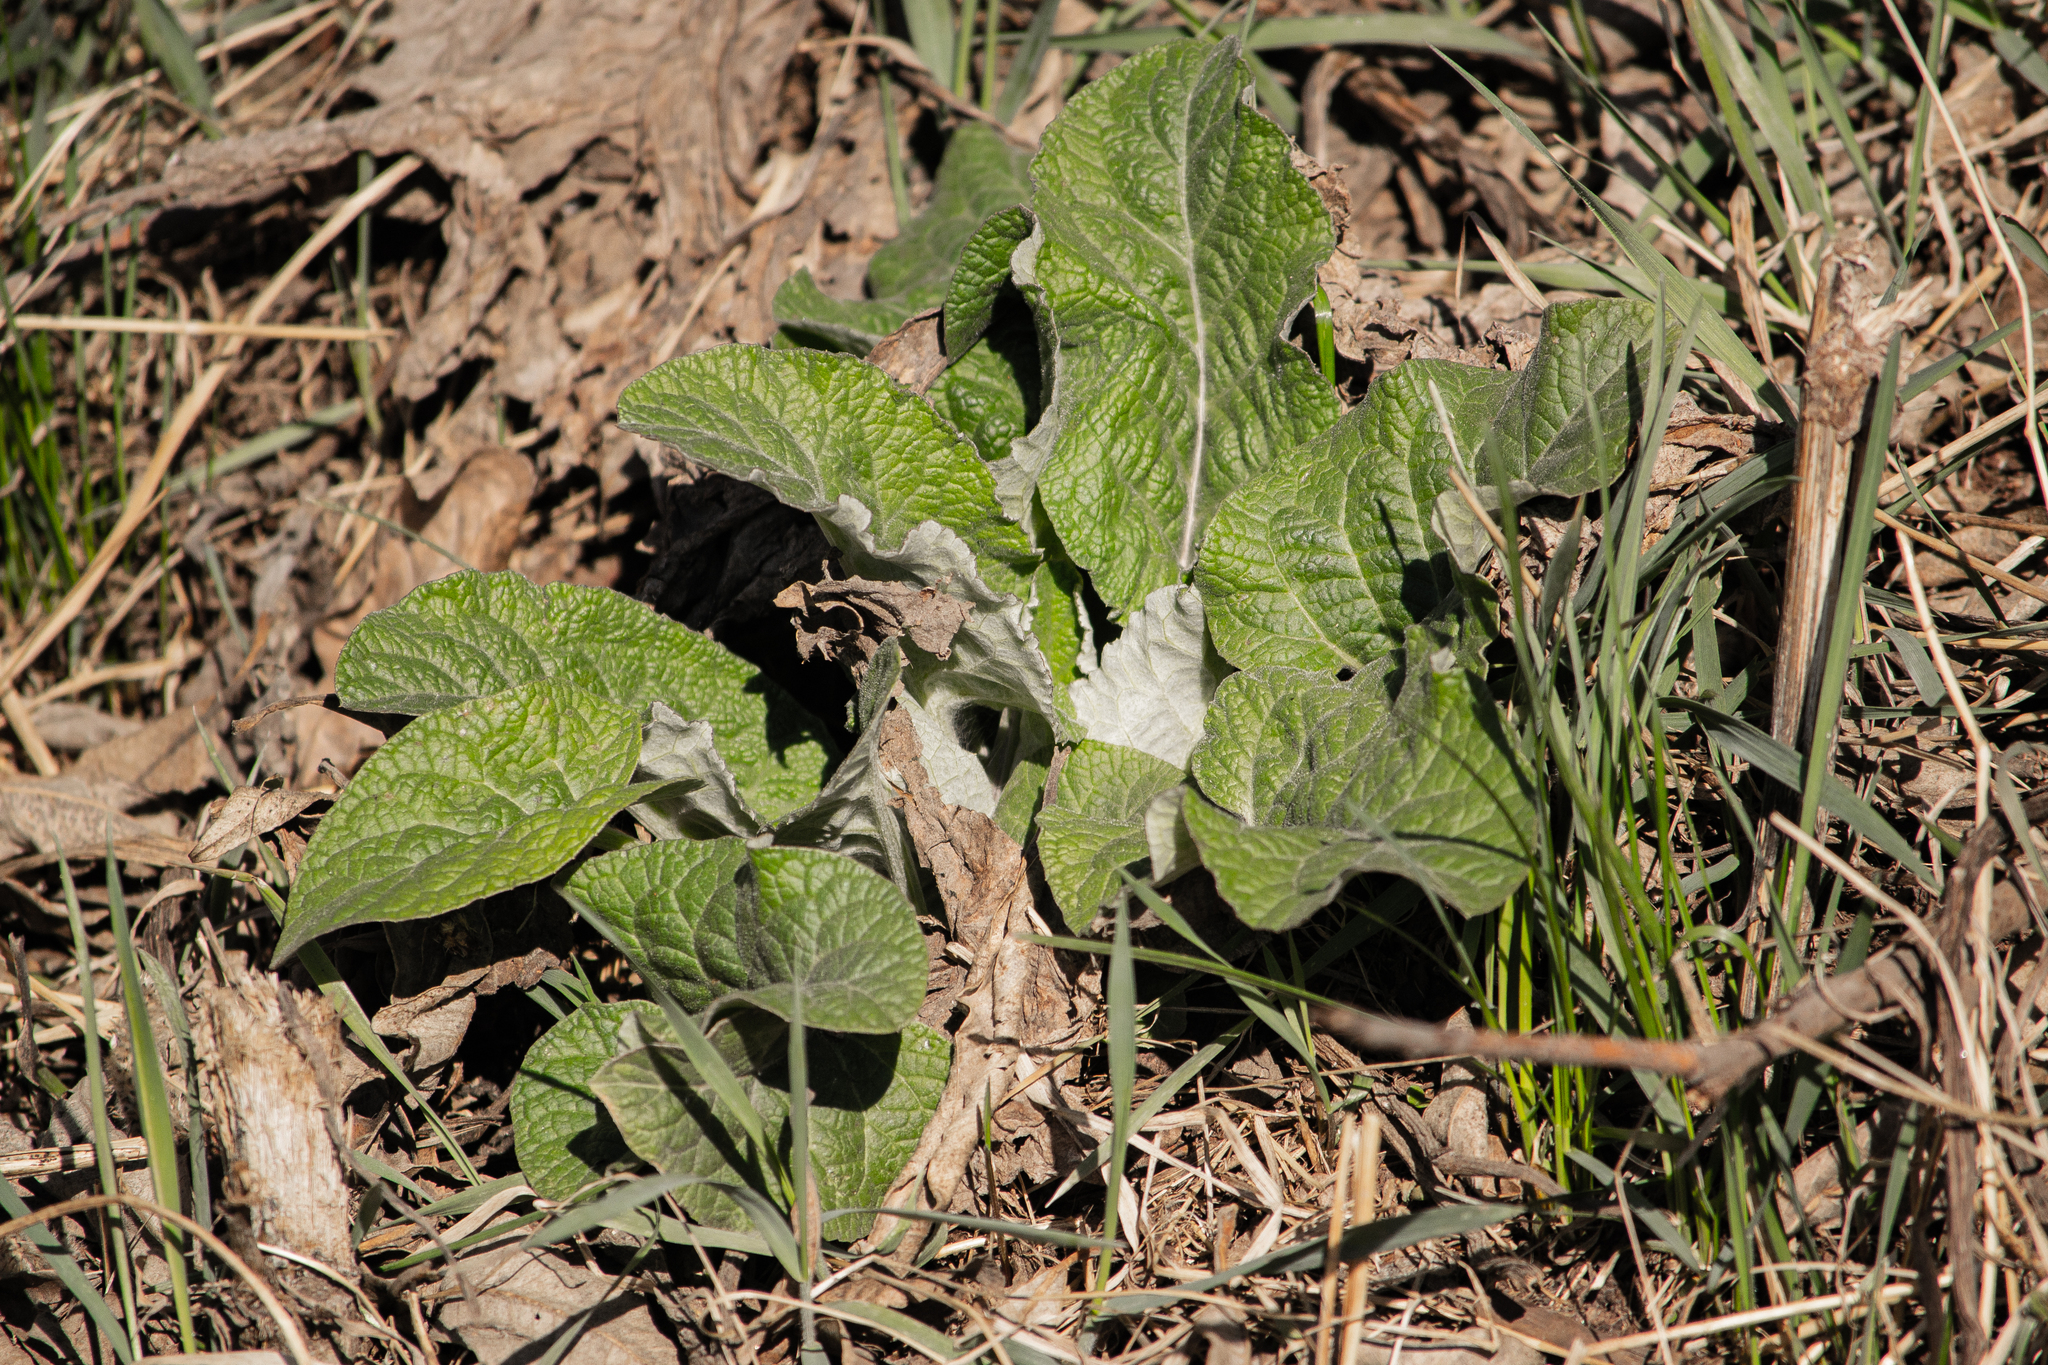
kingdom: Plantae
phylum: Tracheophyta
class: Magnoliopsida
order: Asterales
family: Asteraceae
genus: Arctium
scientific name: Arctium tomentosum
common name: Woolly burdock
